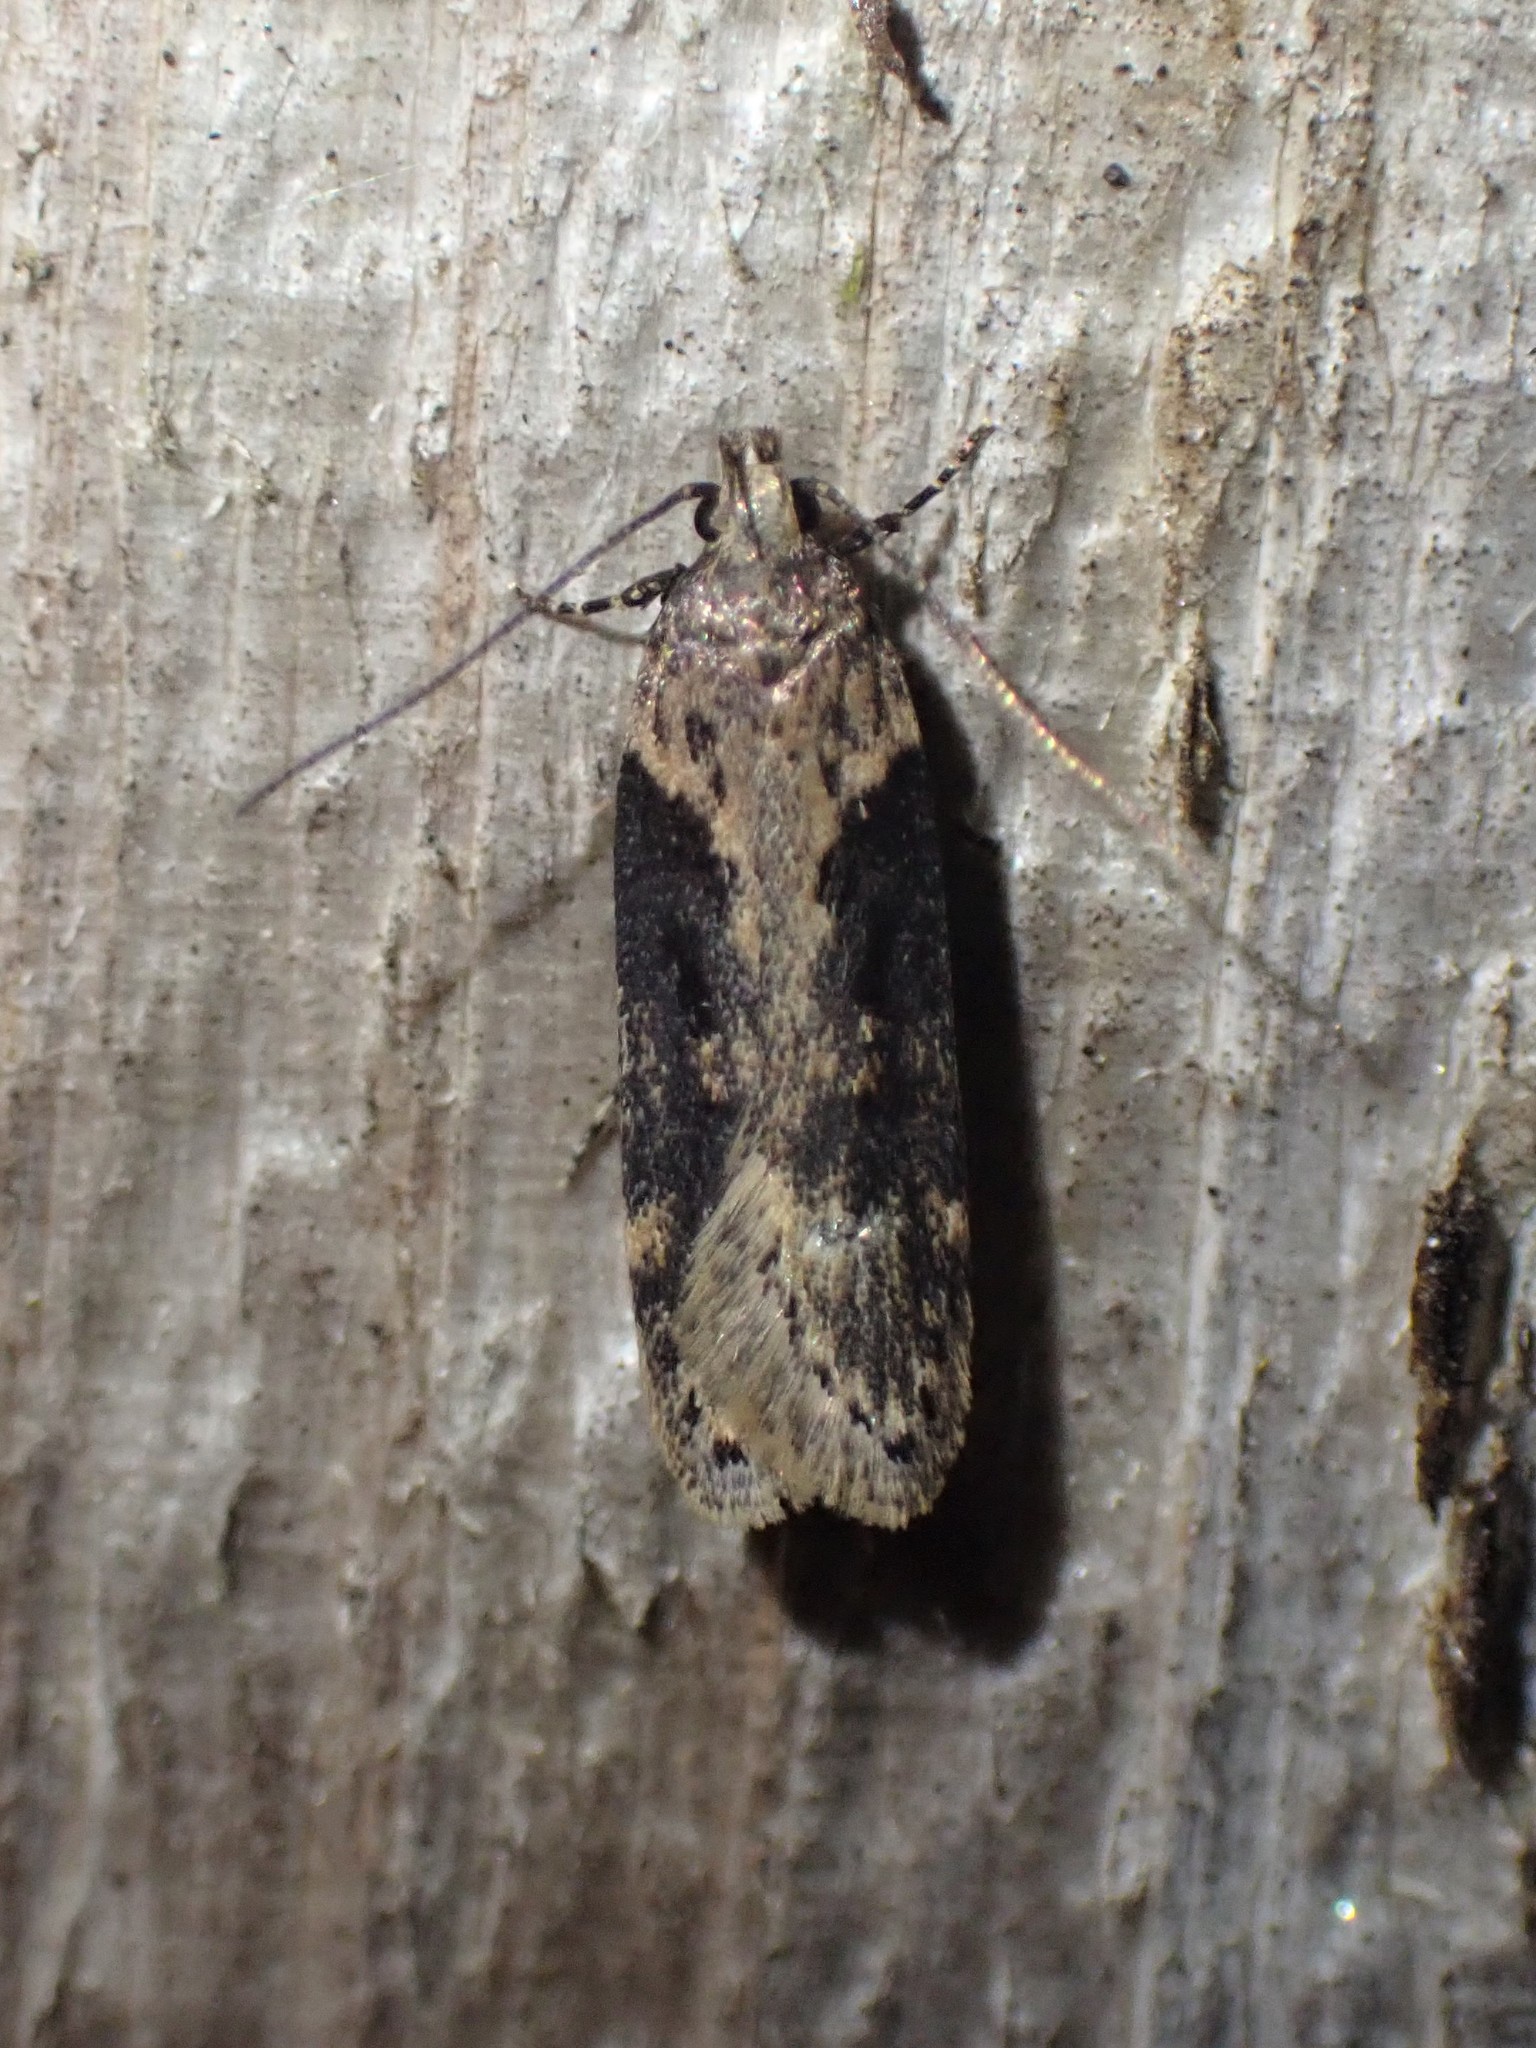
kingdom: Animalia
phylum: Arthropoda
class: Insecta
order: Lepidoptera
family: Gelechiidae
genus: Chionodes
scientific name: Chionodes mediofuscella
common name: Black-smudged chionodes moth
